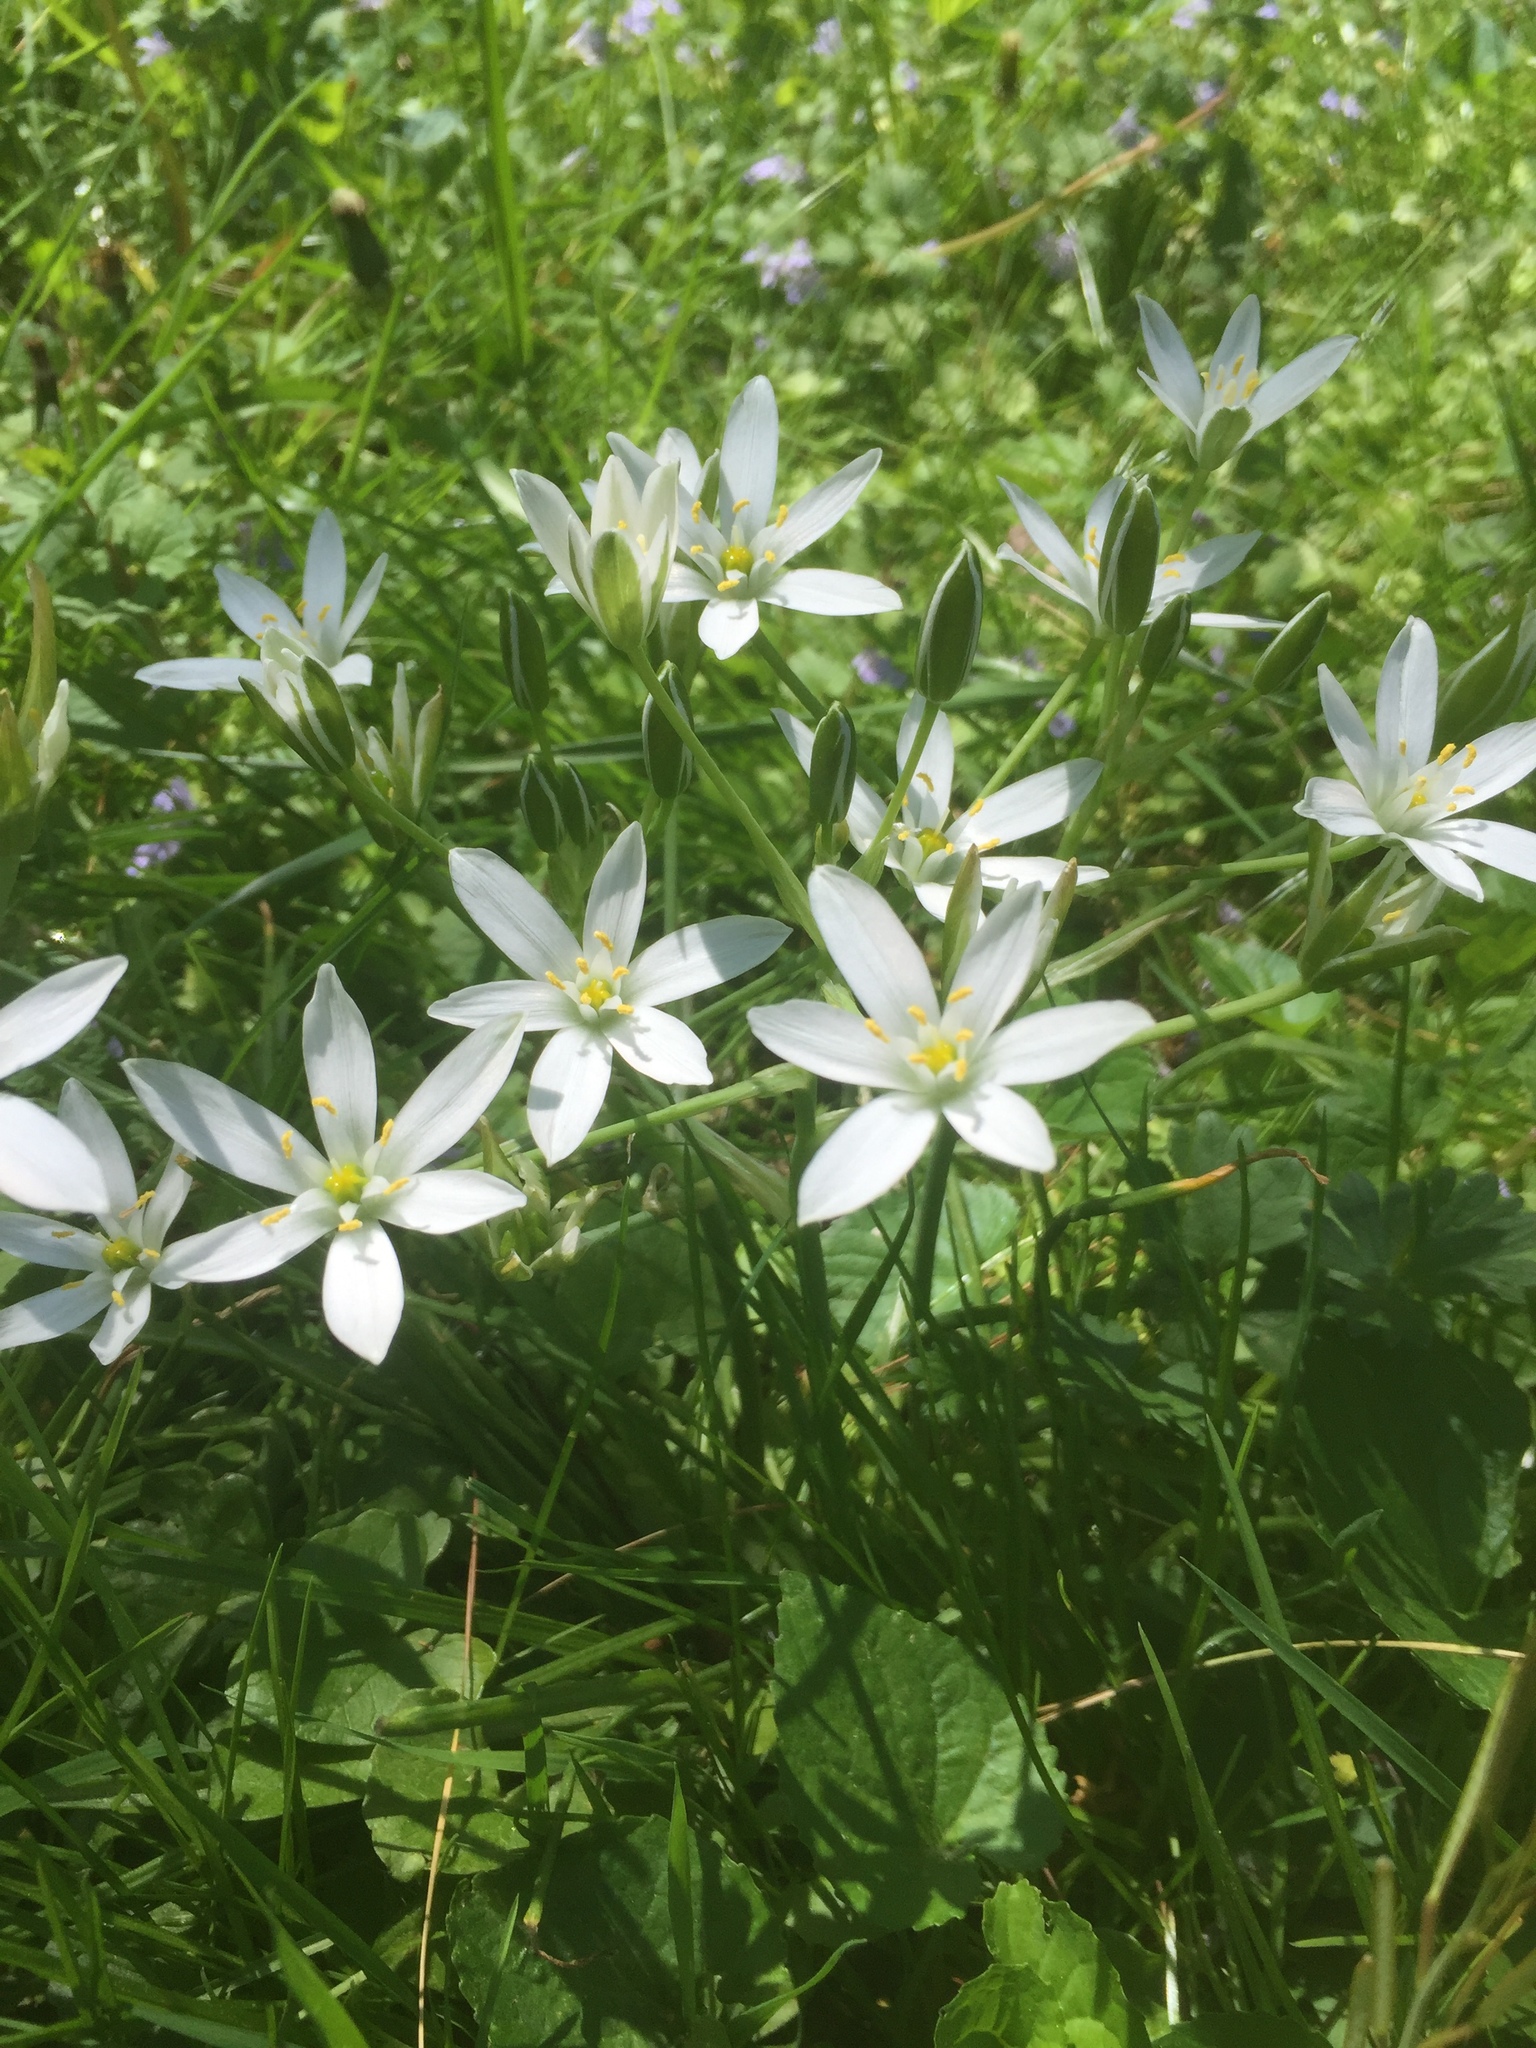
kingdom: Plantae
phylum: Tracheophyta
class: Liliopsida
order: Asparagales
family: Asparagaceae
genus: Ornithogalum
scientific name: Ornithogalum umbellatum
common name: Garden star-of-bethlehem
